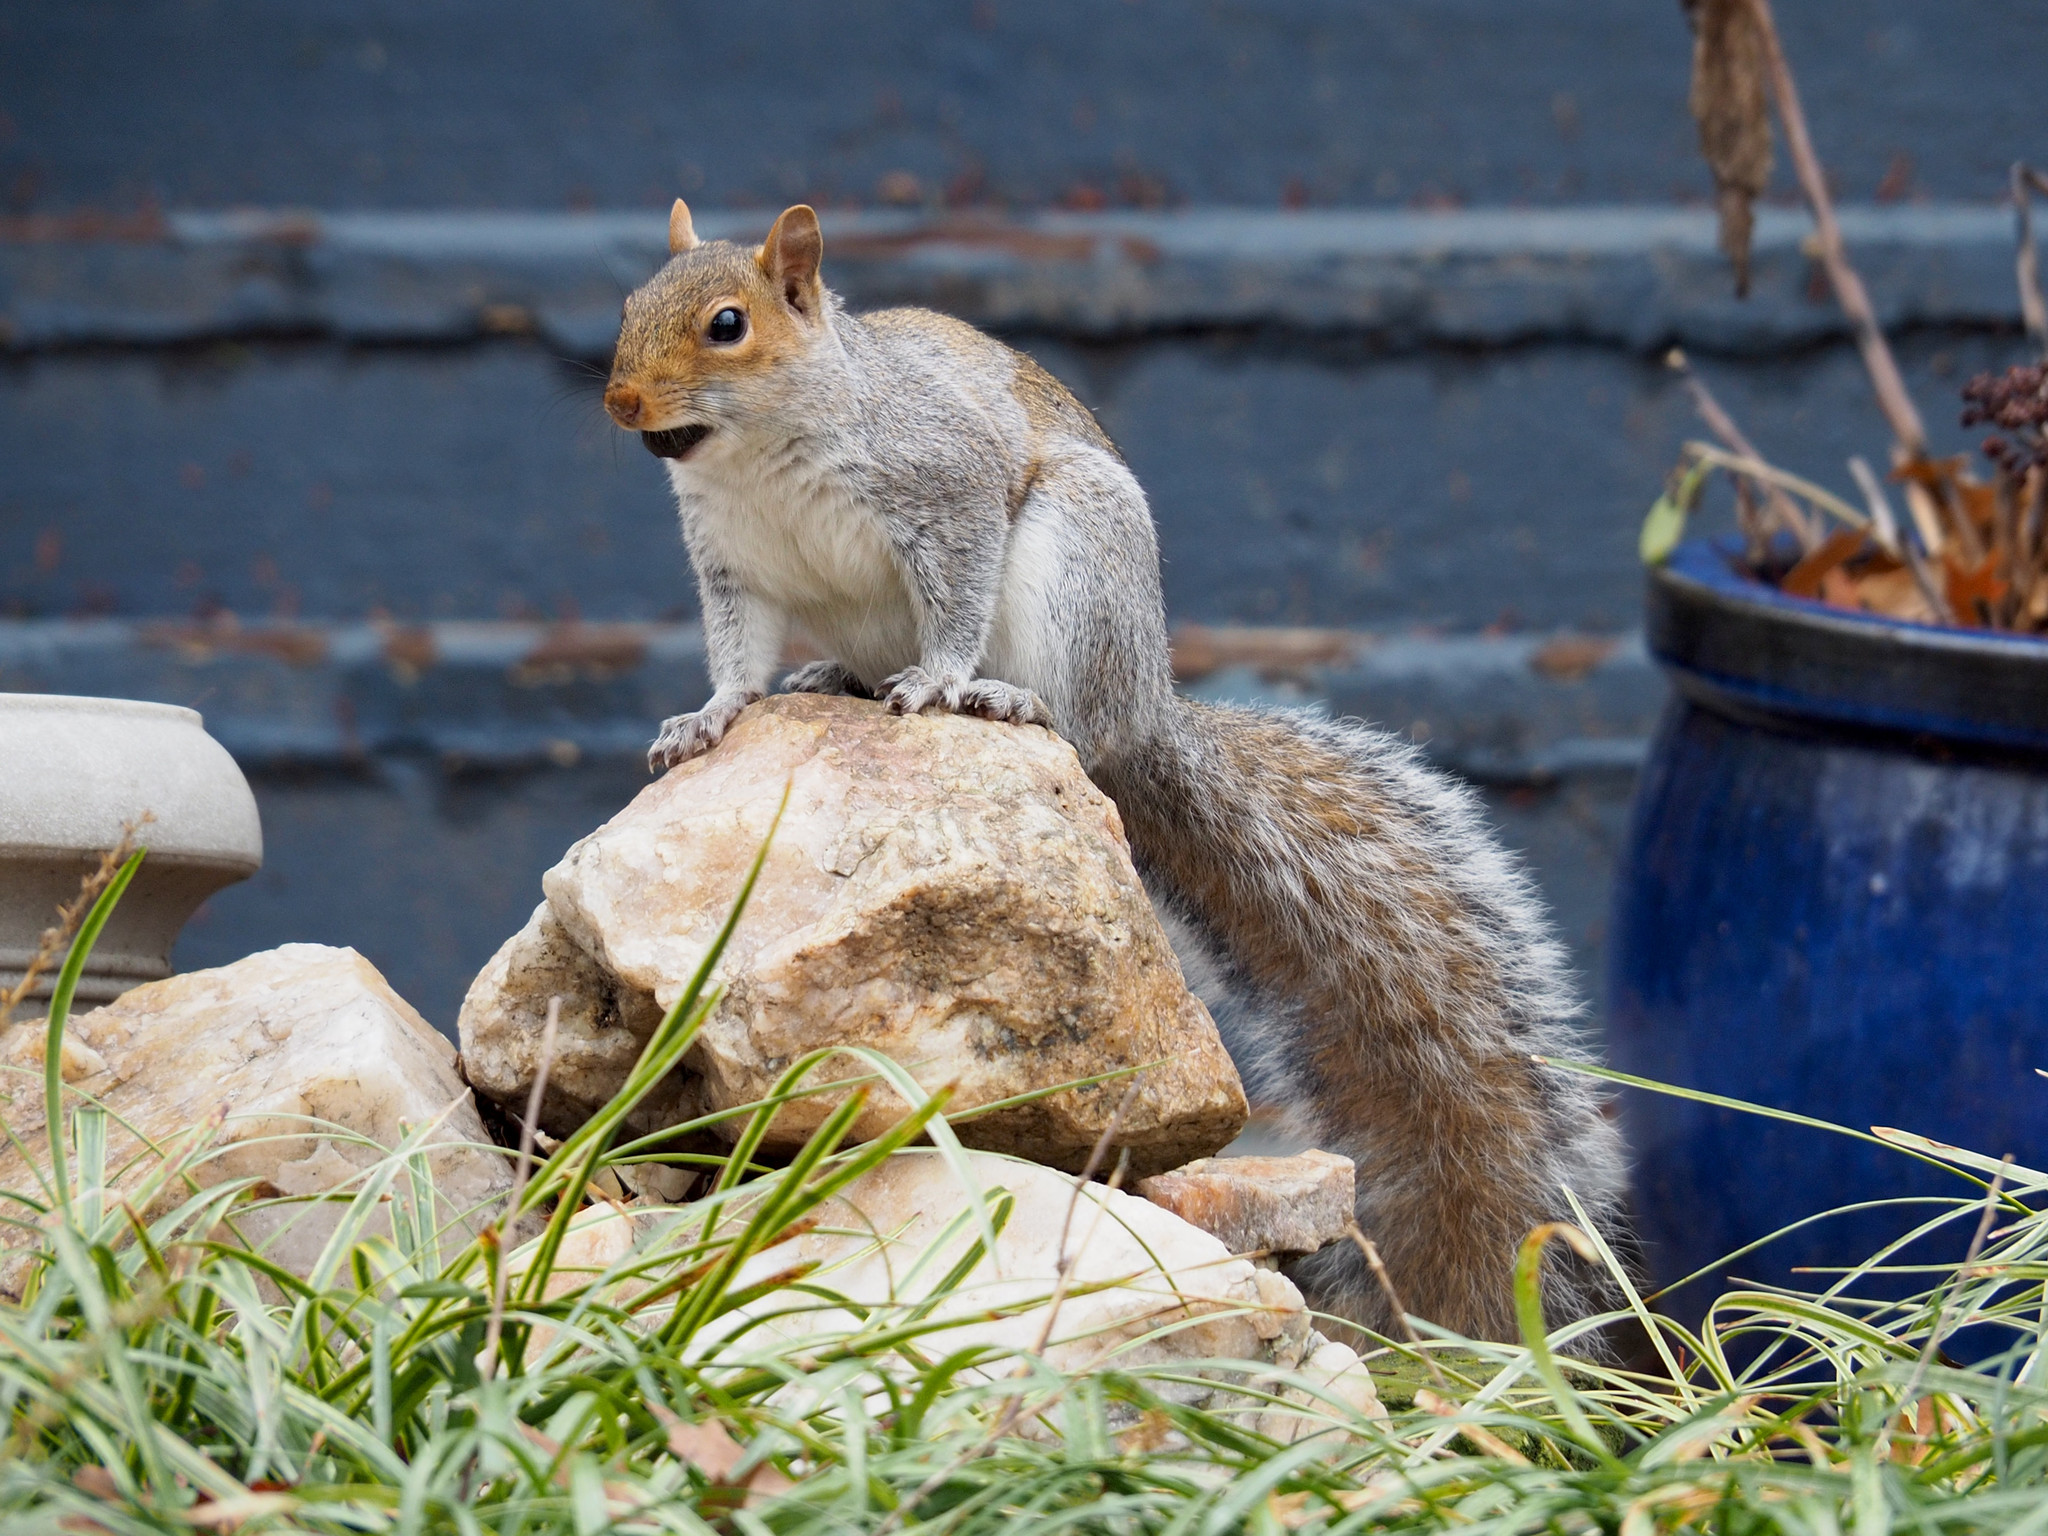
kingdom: Animalia
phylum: Chordata
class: Mammalia
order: Rodentia
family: Sciuridae
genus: Sciurus
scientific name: Sciurus carolinensis
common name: Eastern gray squirrel
